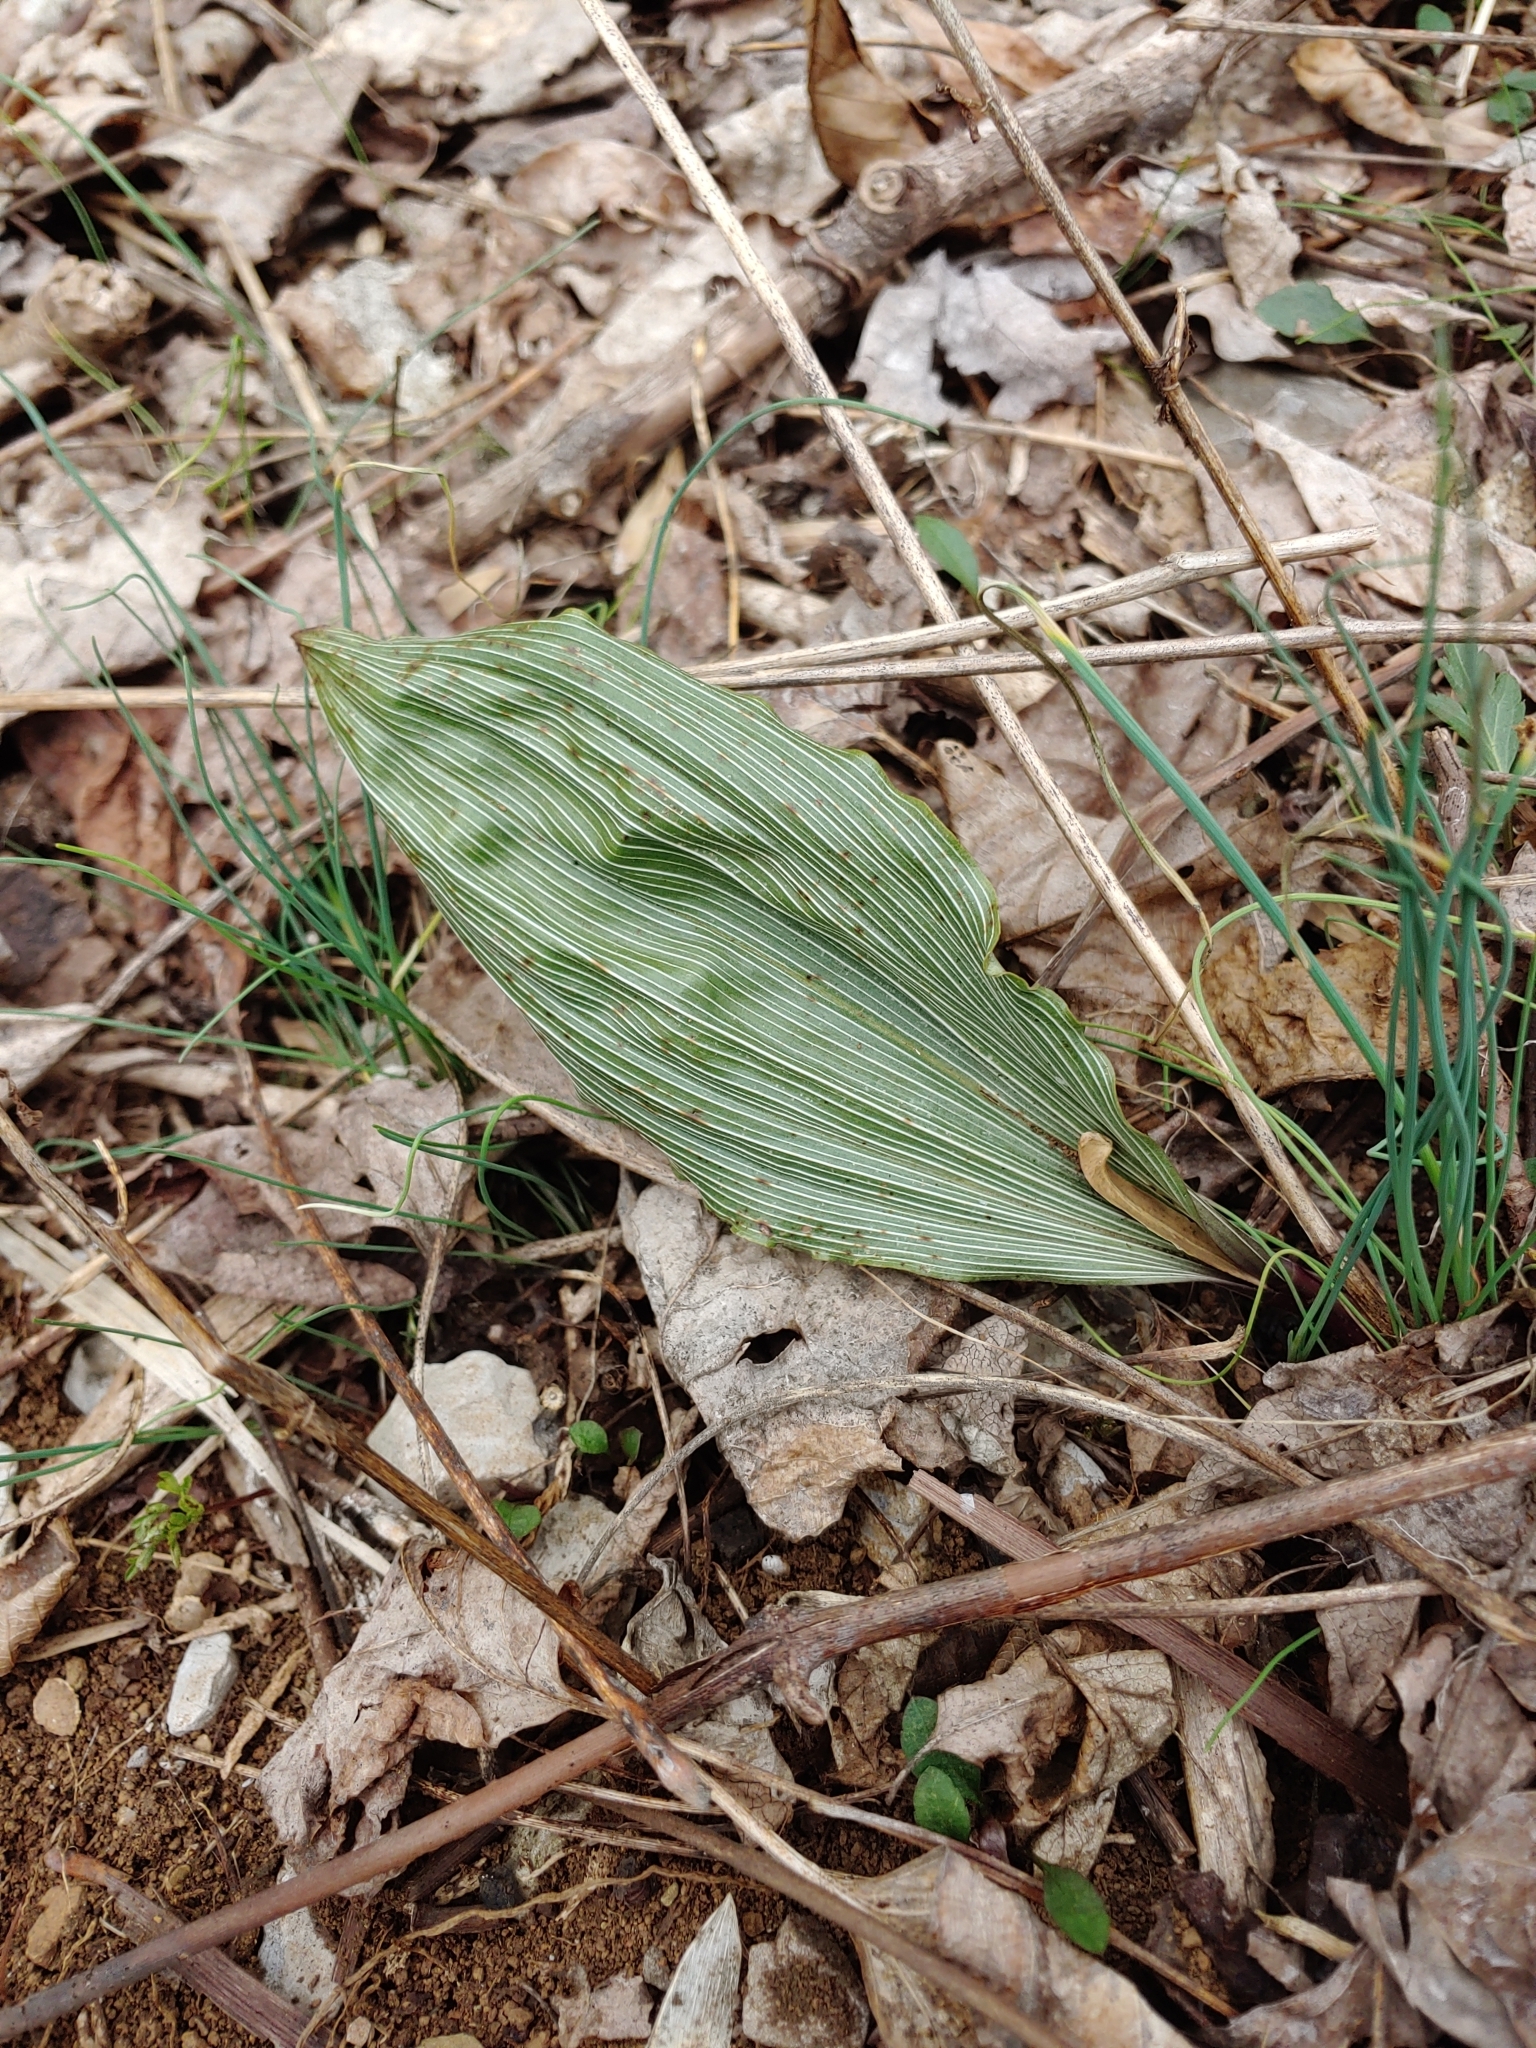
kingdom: Plantae
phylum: Tracheophyta
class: Liliopsida
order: Asparagales
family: Orchidaceae
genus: Aplectrum
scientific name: Aplectrum hyemale
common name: Adam-and-eve
